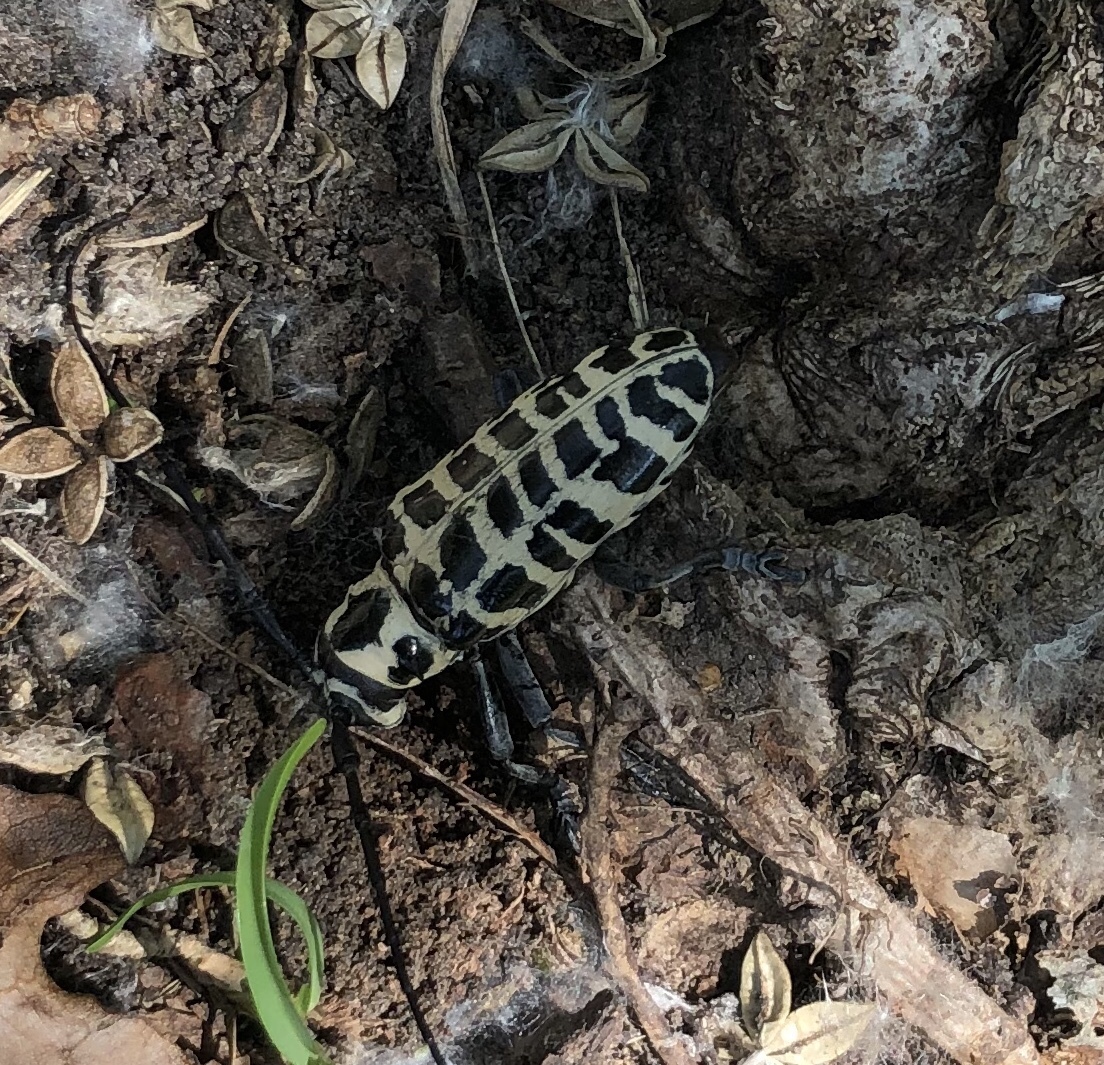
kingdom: Animalia
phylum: Arthropoda
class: Insecta
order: Coleoptera
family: Cerambycidae
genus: Plectrodera
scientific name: Plectrodera scalator
